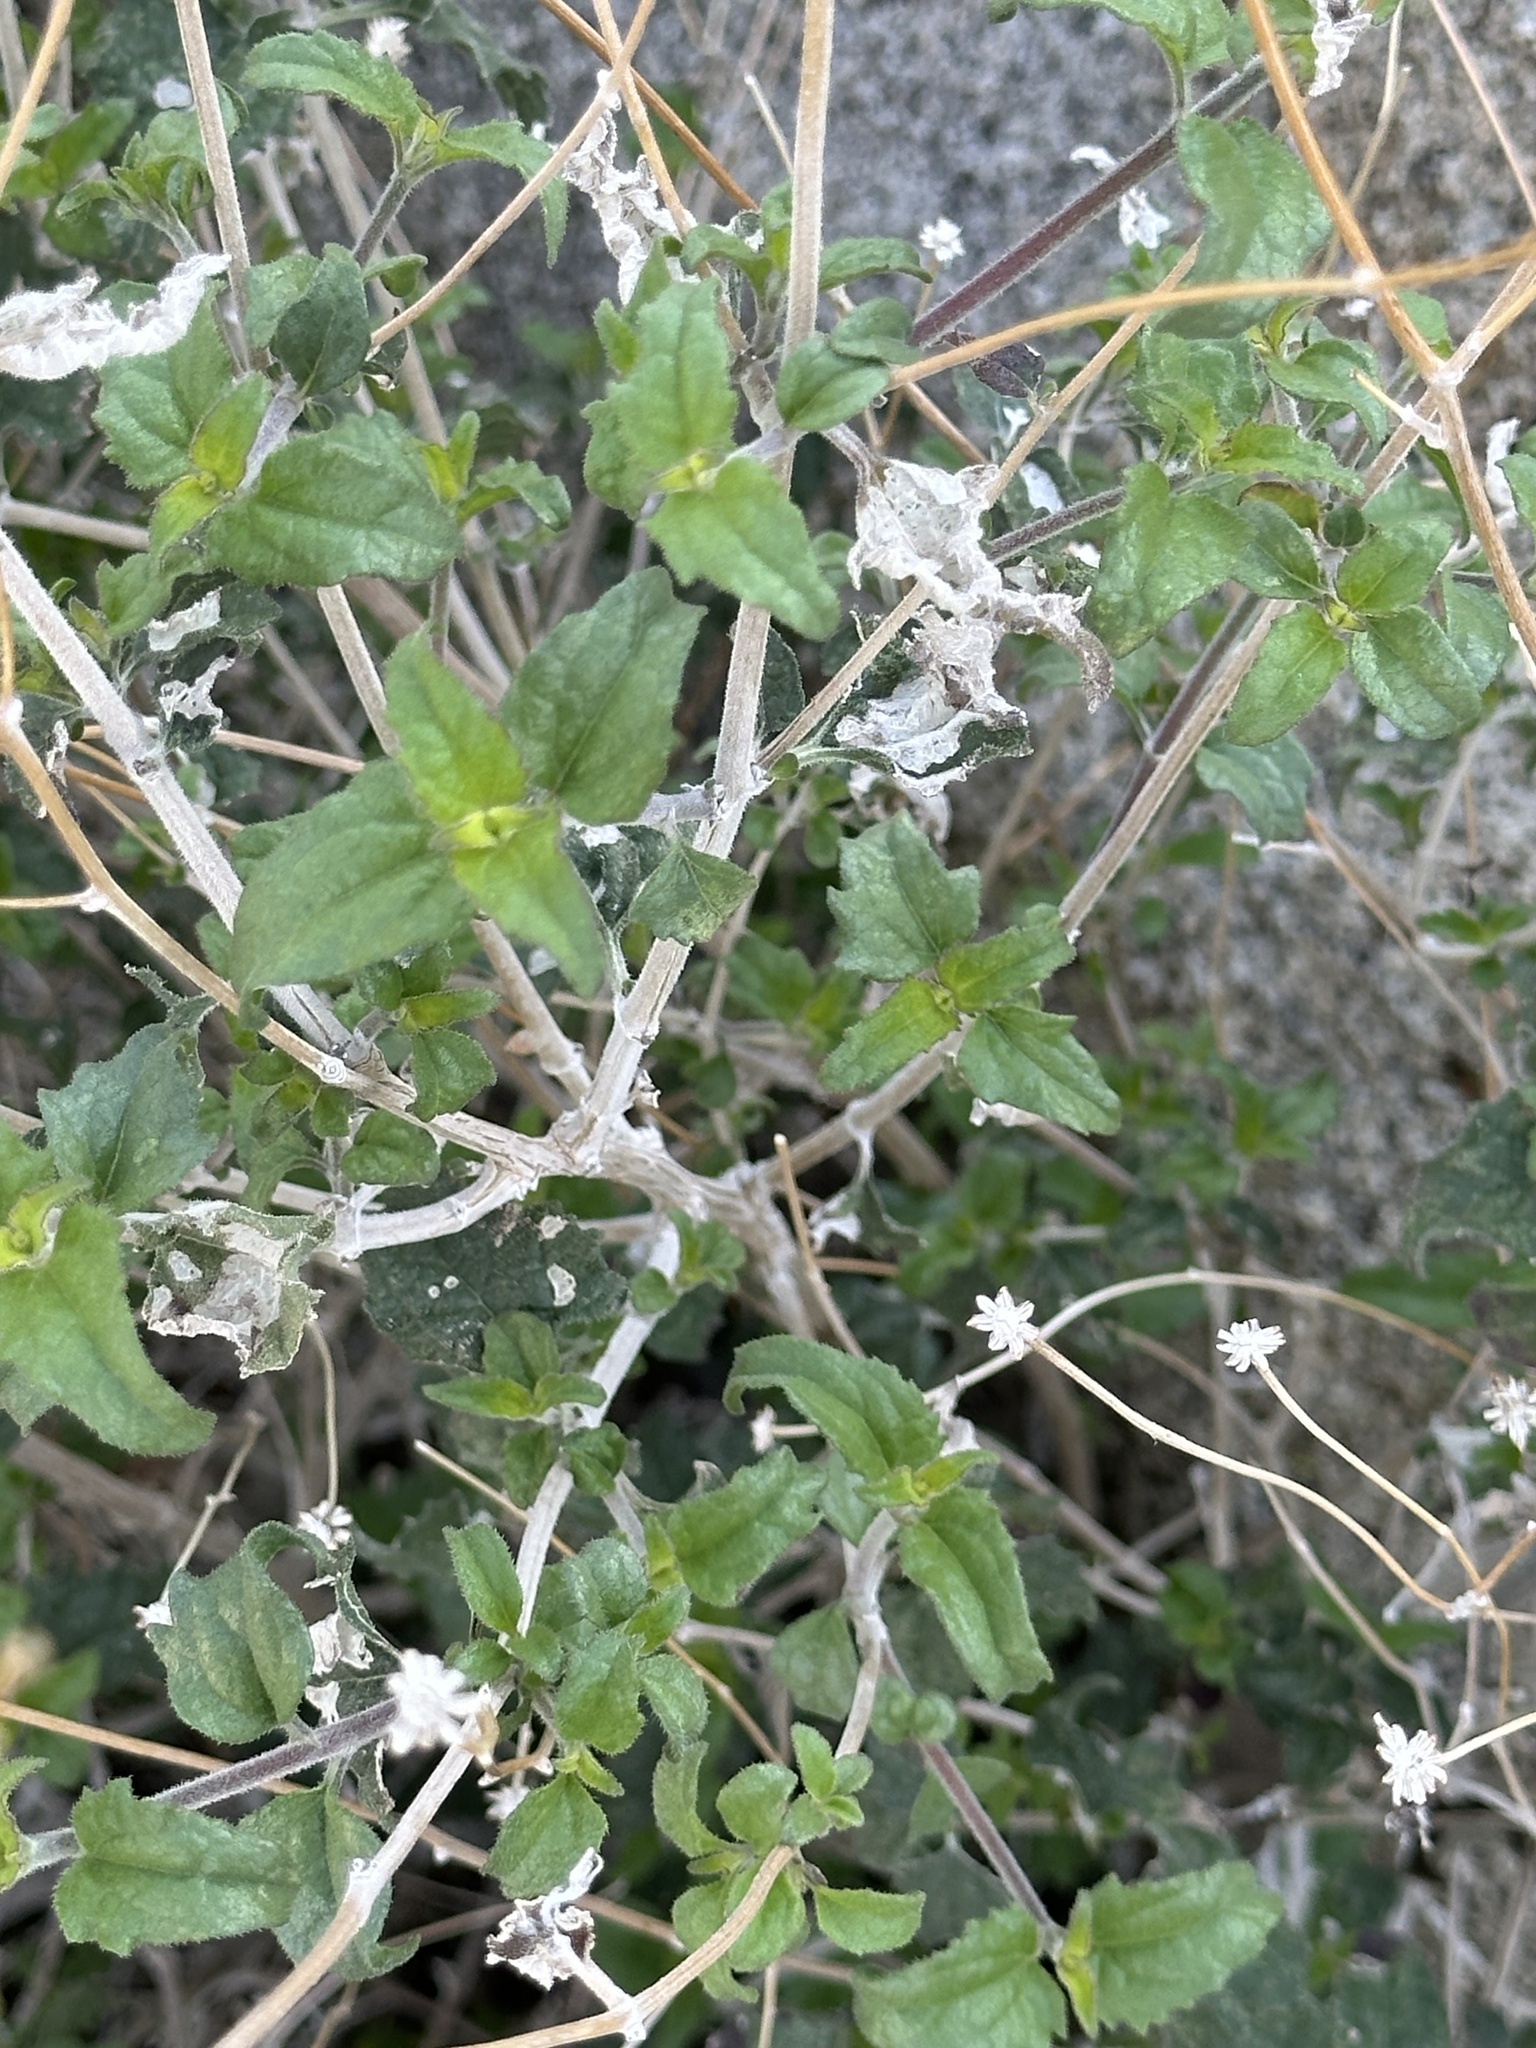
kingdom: Plantae
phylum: Tracheophyta
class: Magnoliopsida
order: Asterales
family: Asteraceae
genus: Bahiopsis
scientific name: Bahiopsis parishii
